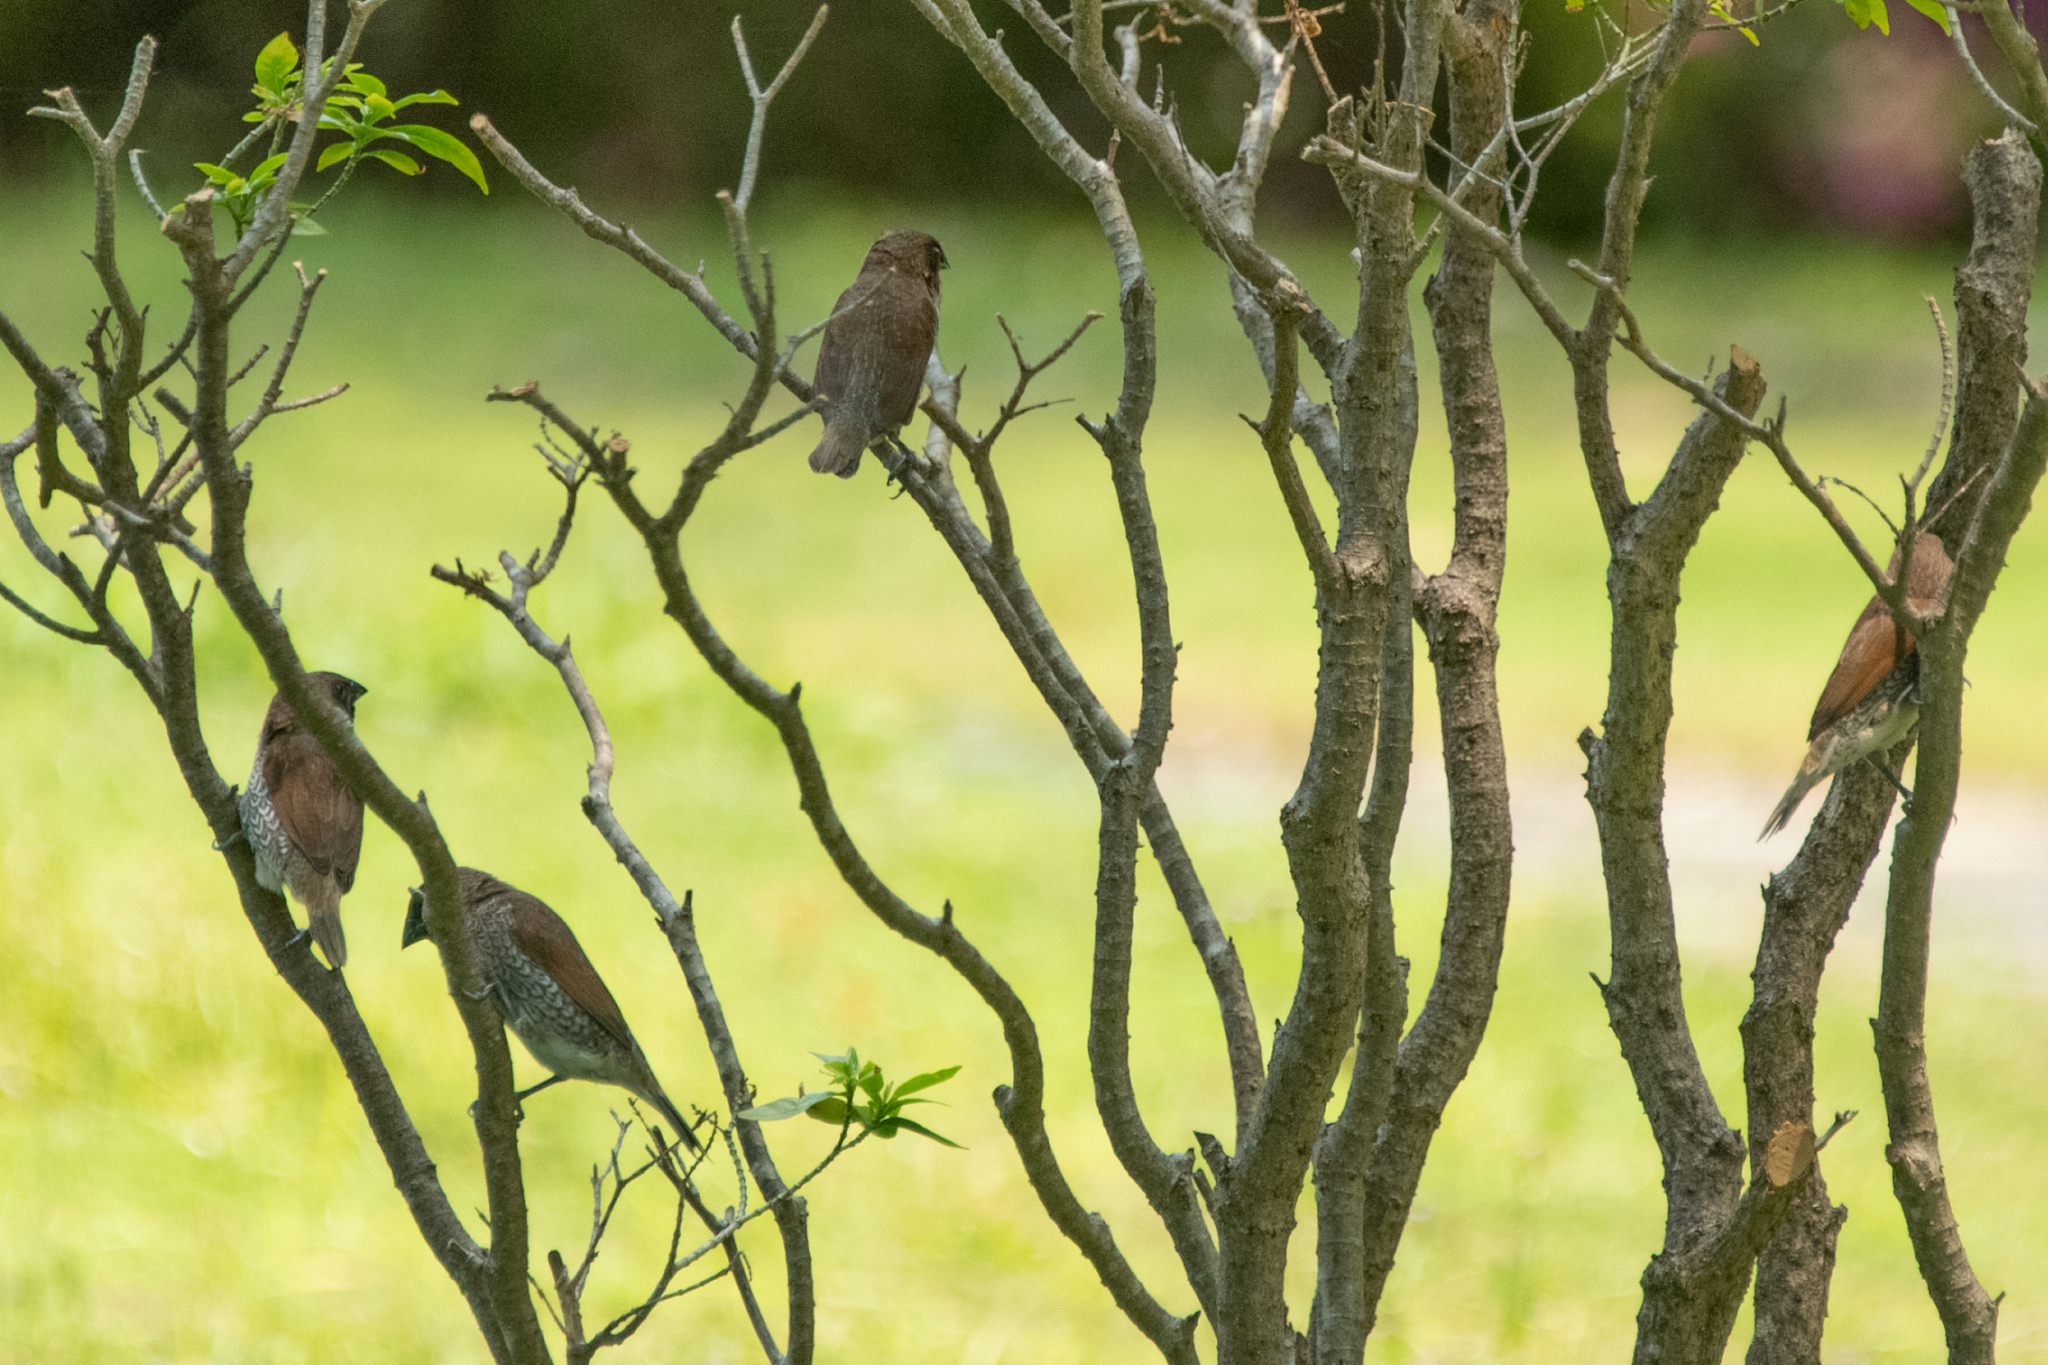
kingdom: Animalia
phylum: Chordata
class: Aves
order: Passeriformes
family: Estrildidae
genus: Lonchura
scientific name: Lonchura punctulata
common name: Scaly-breasted munia
